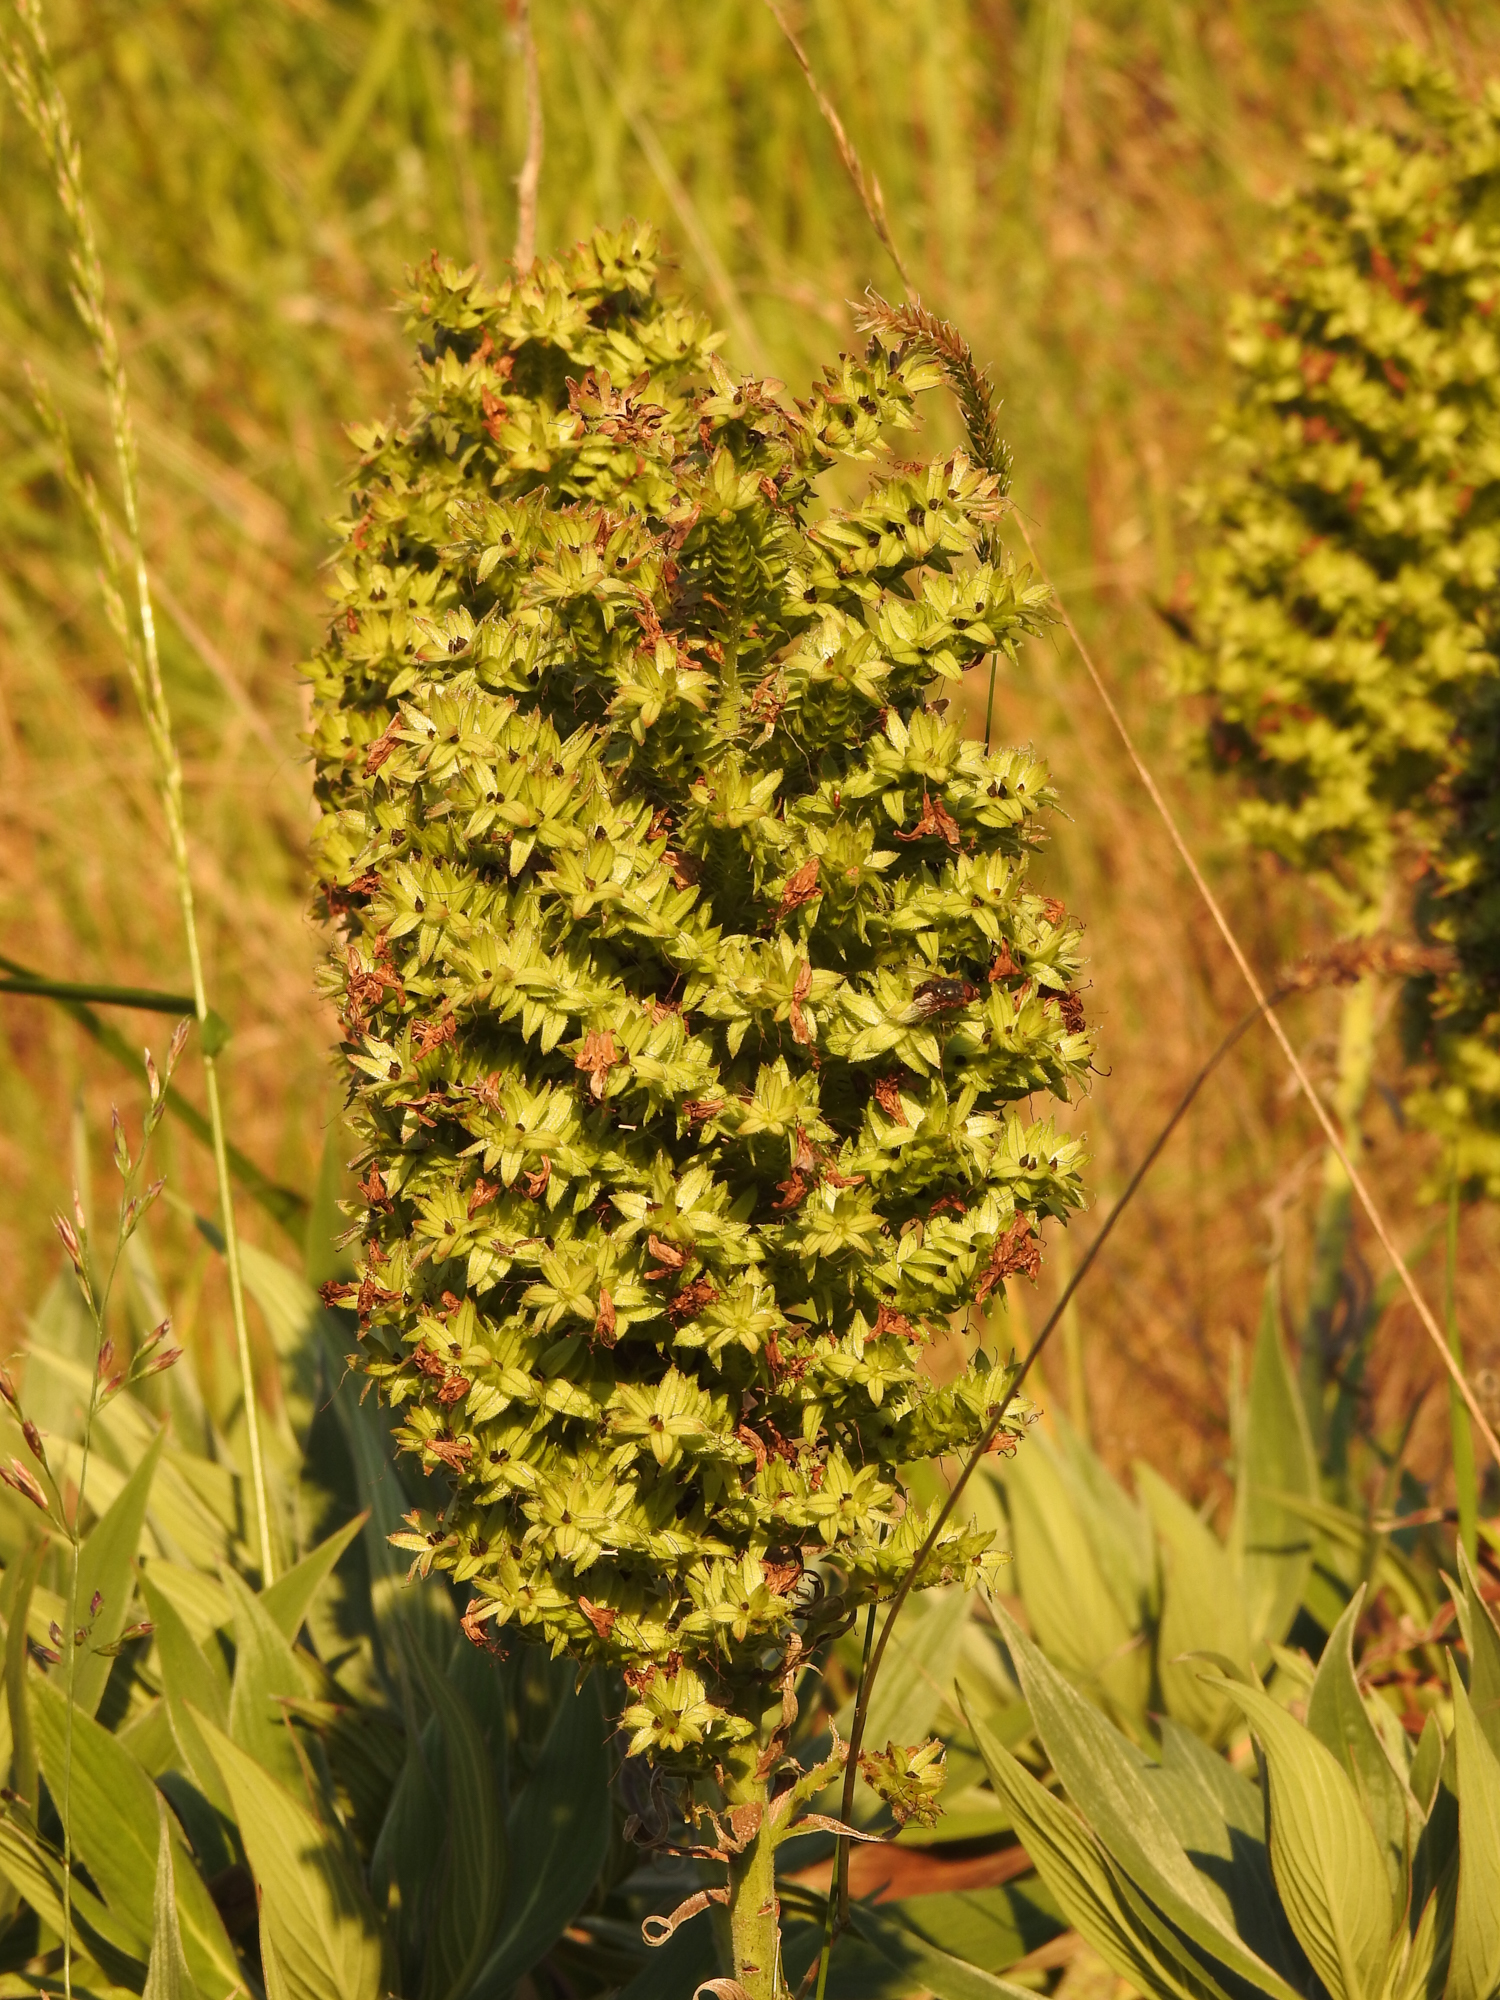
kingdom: Plantae
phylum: Tracheophyta
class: Magnoliopsida
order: Boraginales
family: Boraginaceae
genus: Echium
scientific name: Echium candicans
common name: Pride of madeira
